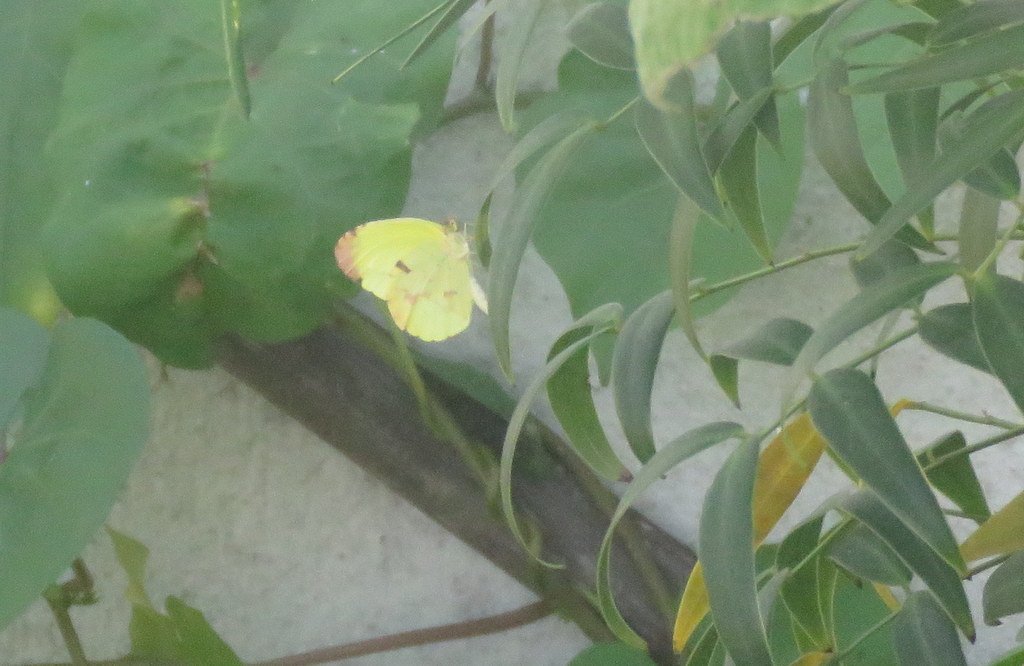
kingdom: Animalia
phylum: Arthropoda
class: Insecta
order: Lepidoptera
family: Pieridae
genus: Teriocolias
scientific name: Teriocolias
